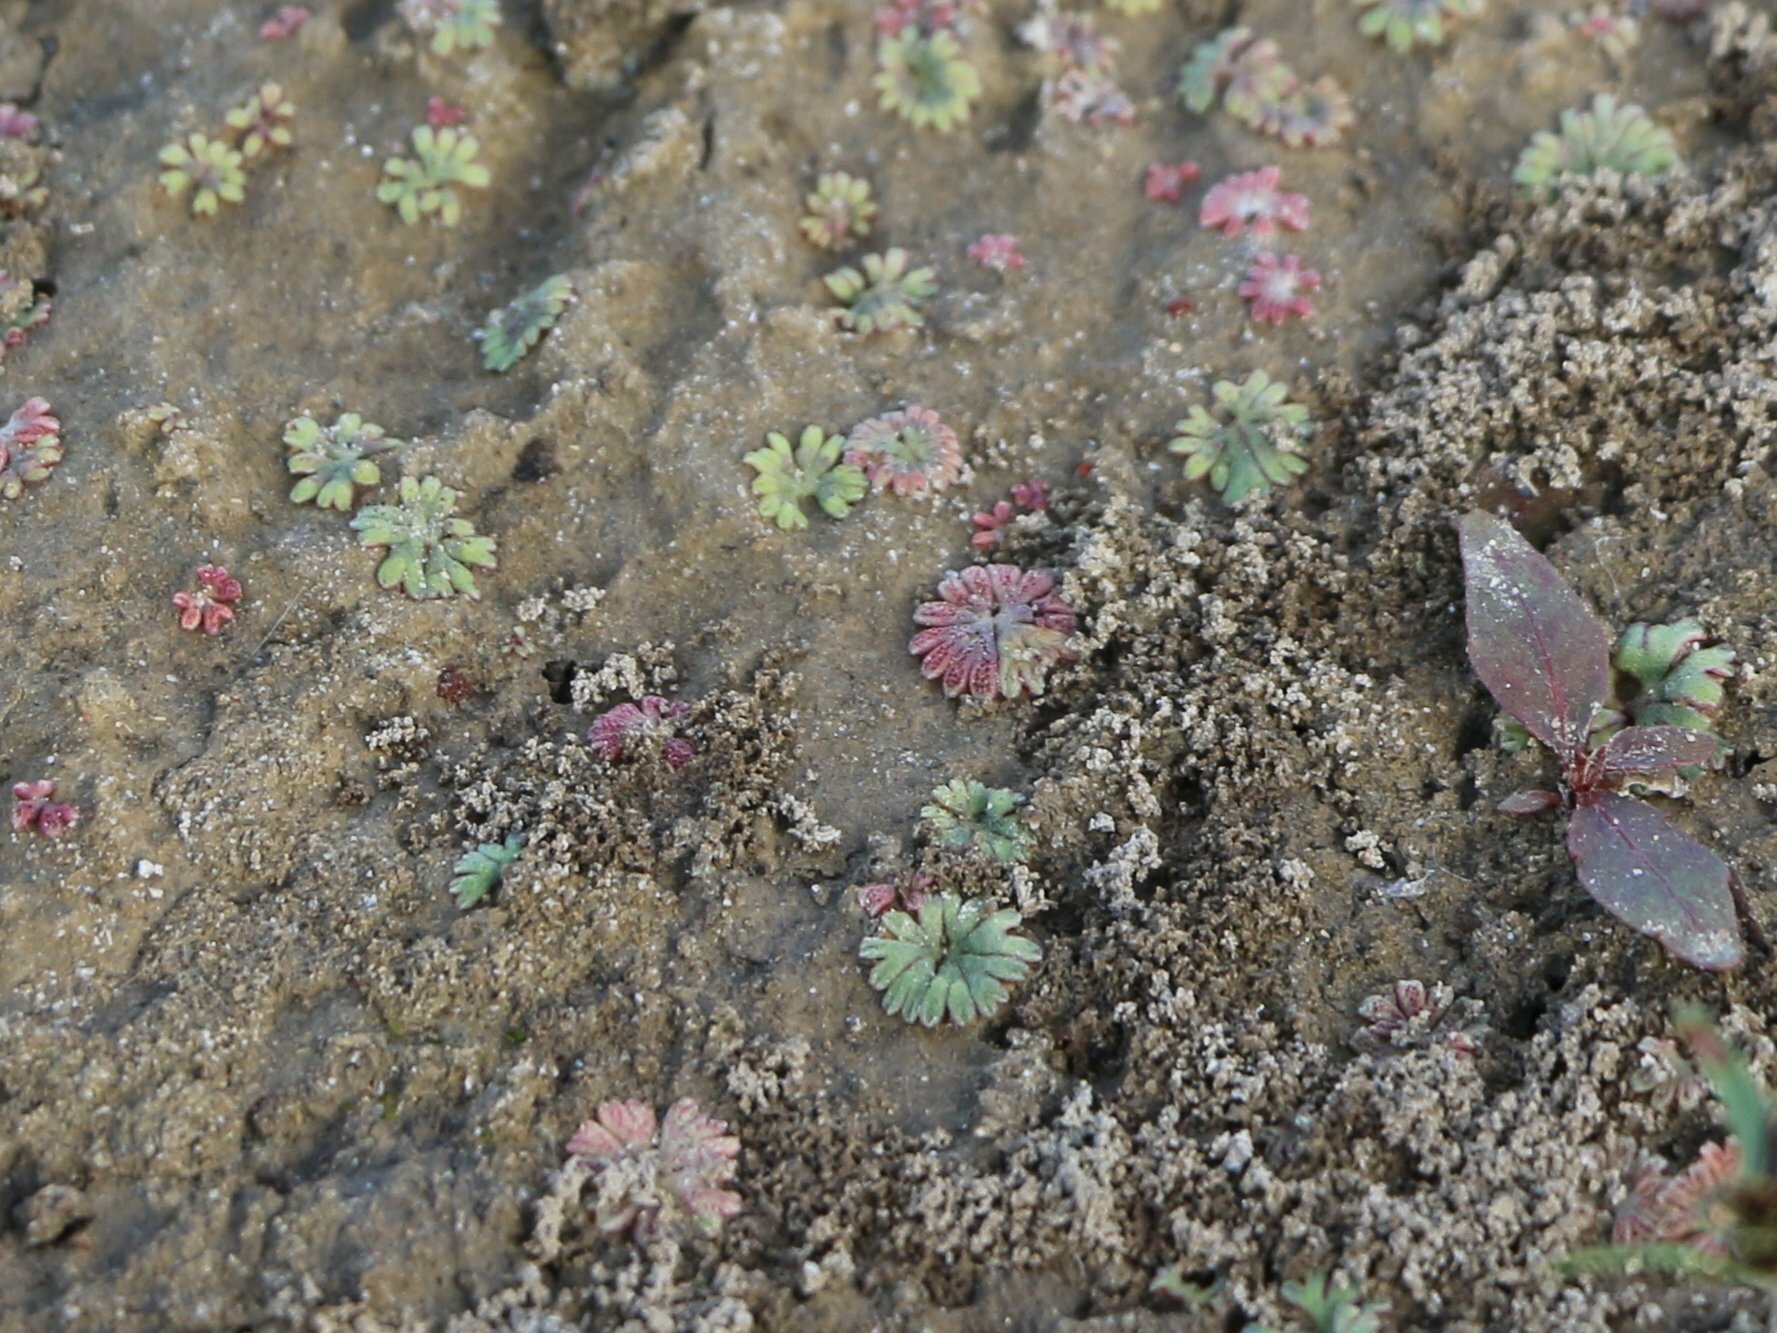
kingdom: Plantae
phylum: Marchantiophyta
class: Marchantiopsida
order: Marchantiales
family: Ricciaceae
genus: Riccia
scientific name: Riccia frostii
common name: Frost s crystalwort
